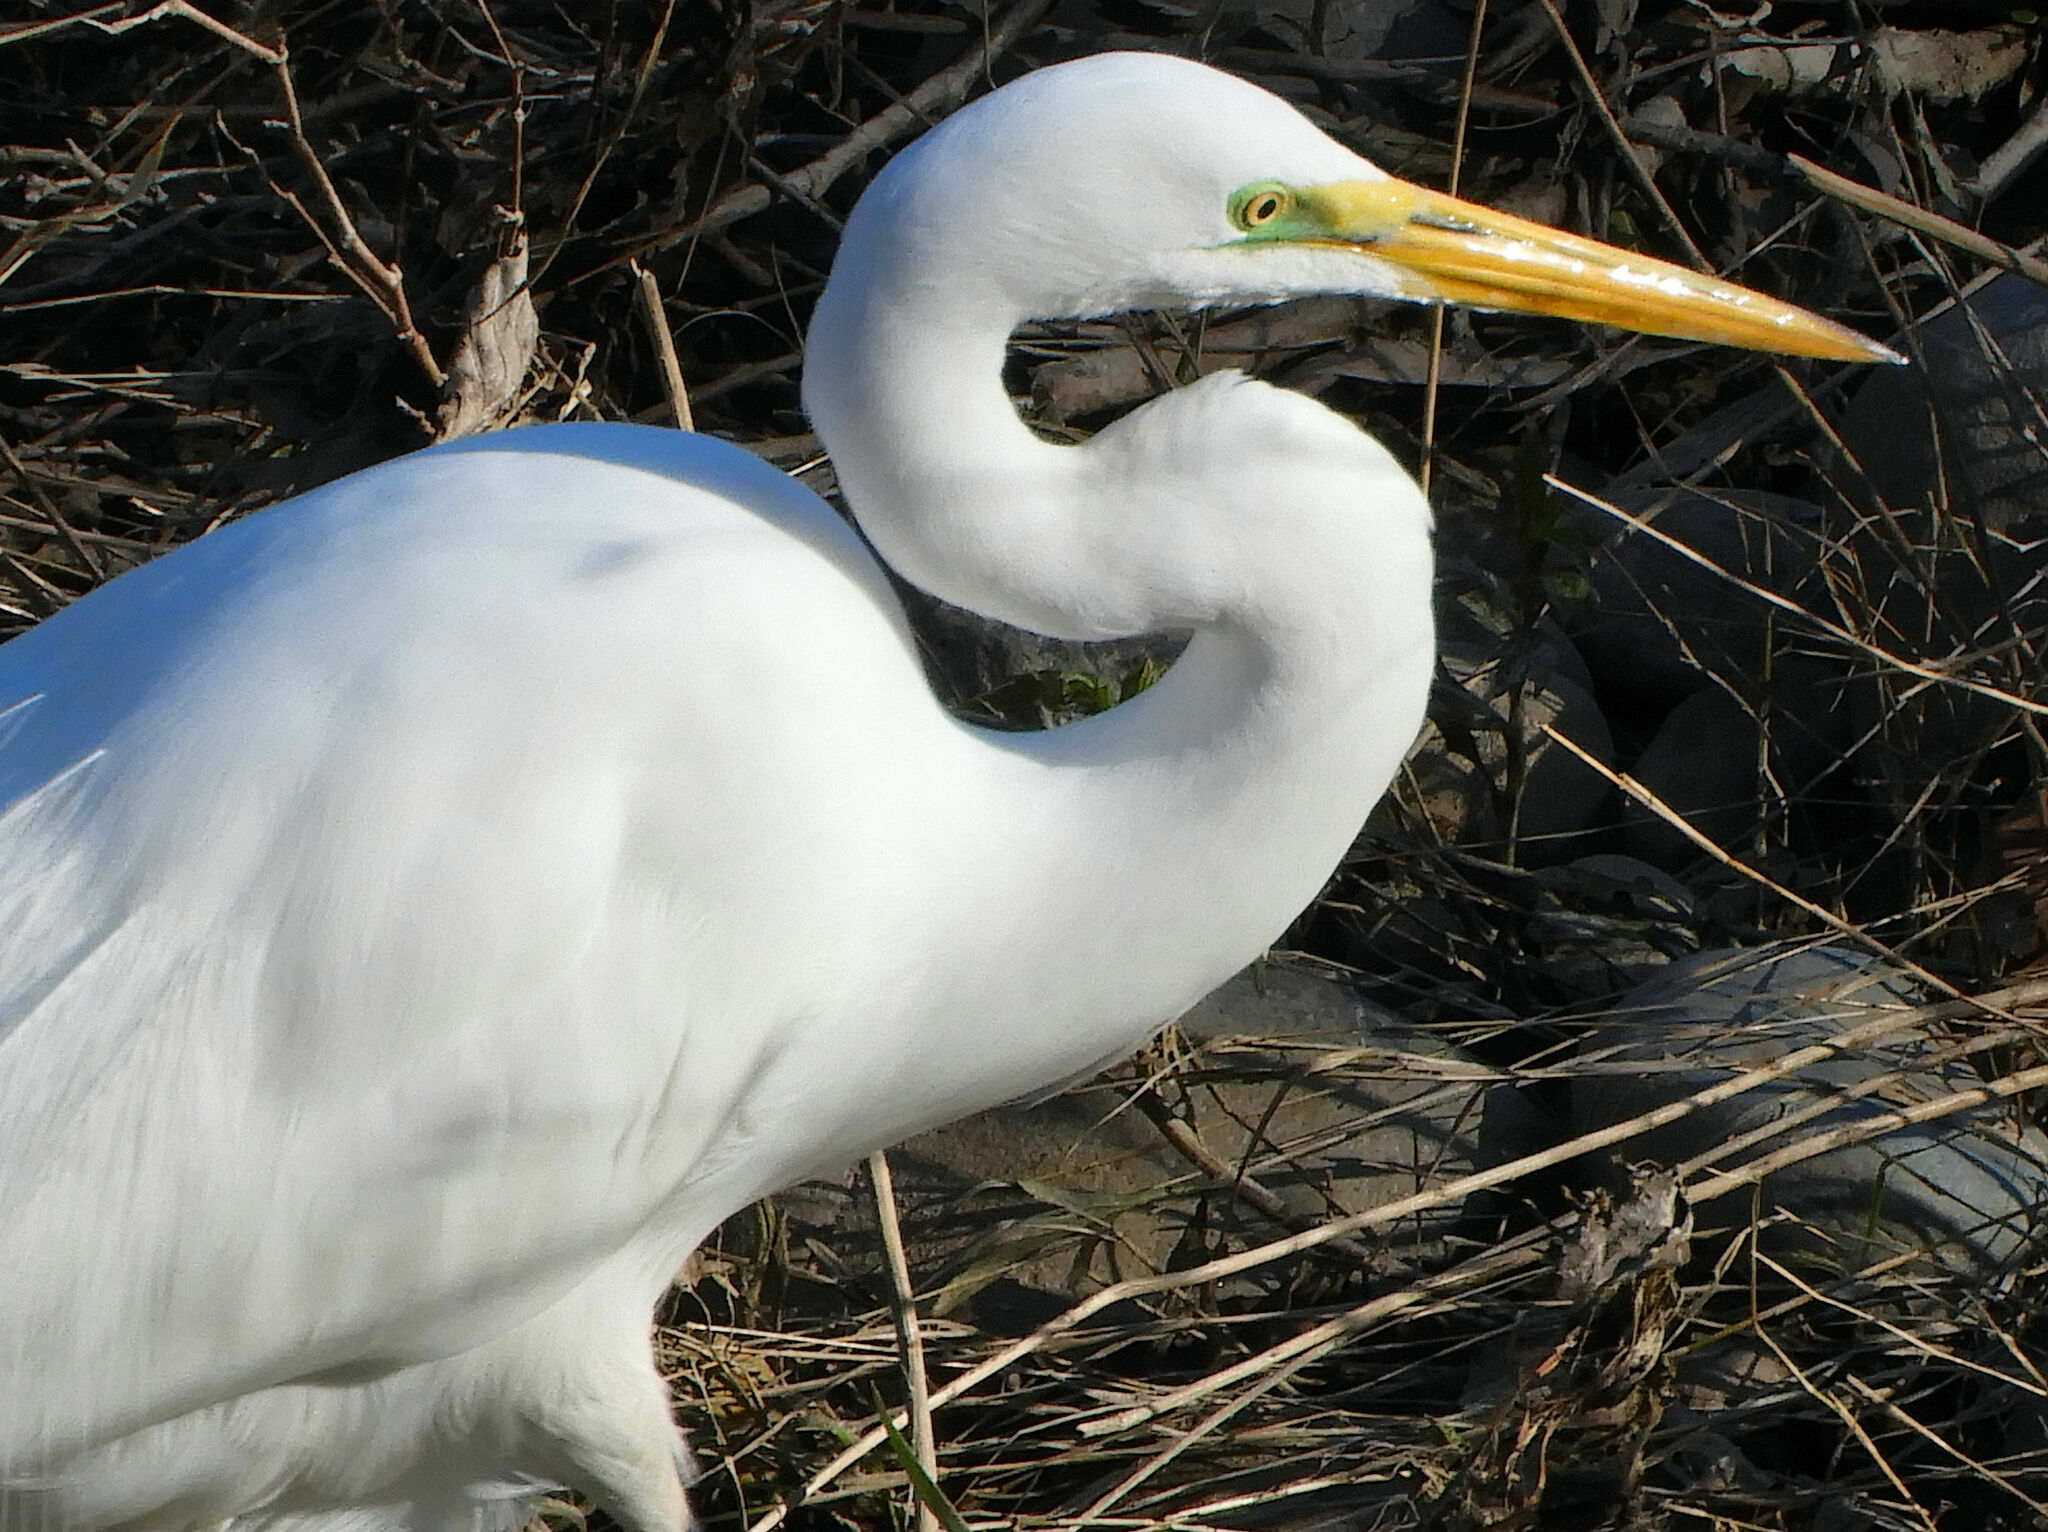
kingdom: Animalia
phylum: Chordata
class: Aves
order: Pelecaniformes
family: Ardeidae
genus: Ardea
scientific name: Ardea alba
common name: Great egret
